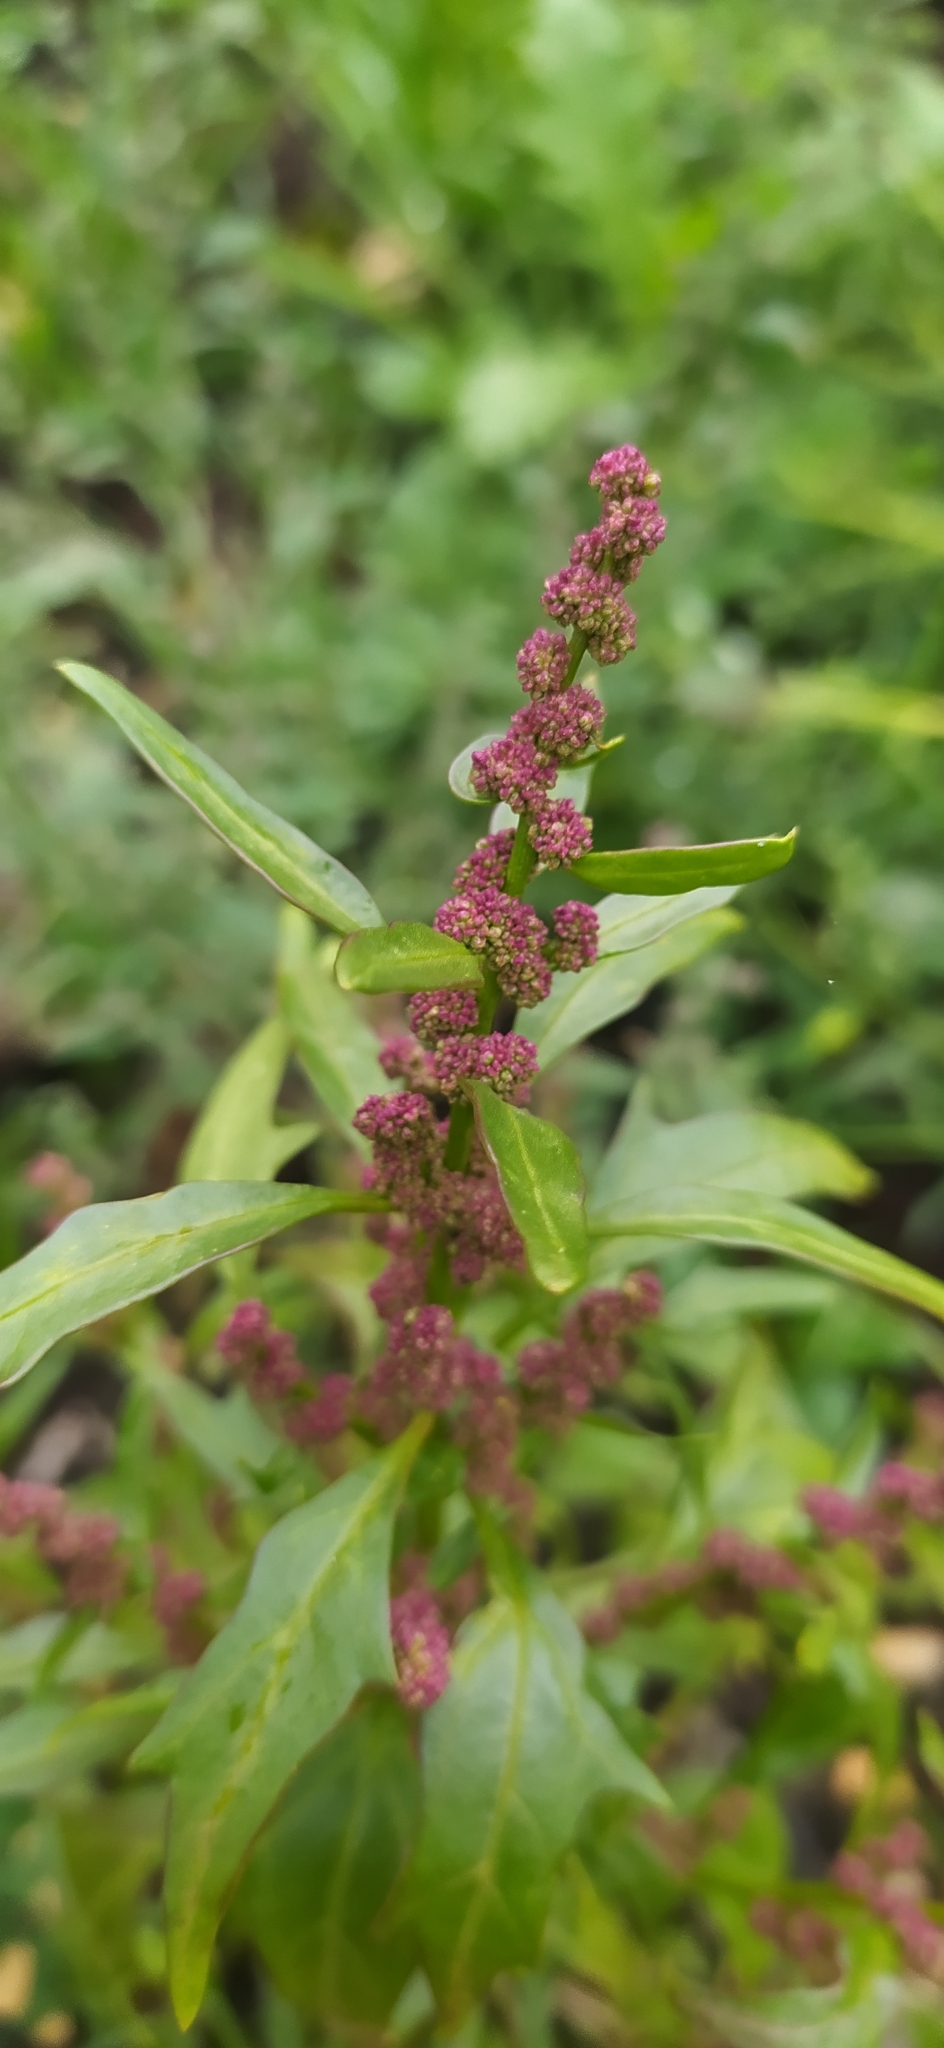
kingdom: Plantae
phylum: Tracheophyta
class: Magnoliopsida
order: Caryophyllales
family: Amaranthaceae
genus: Oxybasis
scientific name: Oxybasis rubra
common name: Red goosefoot
